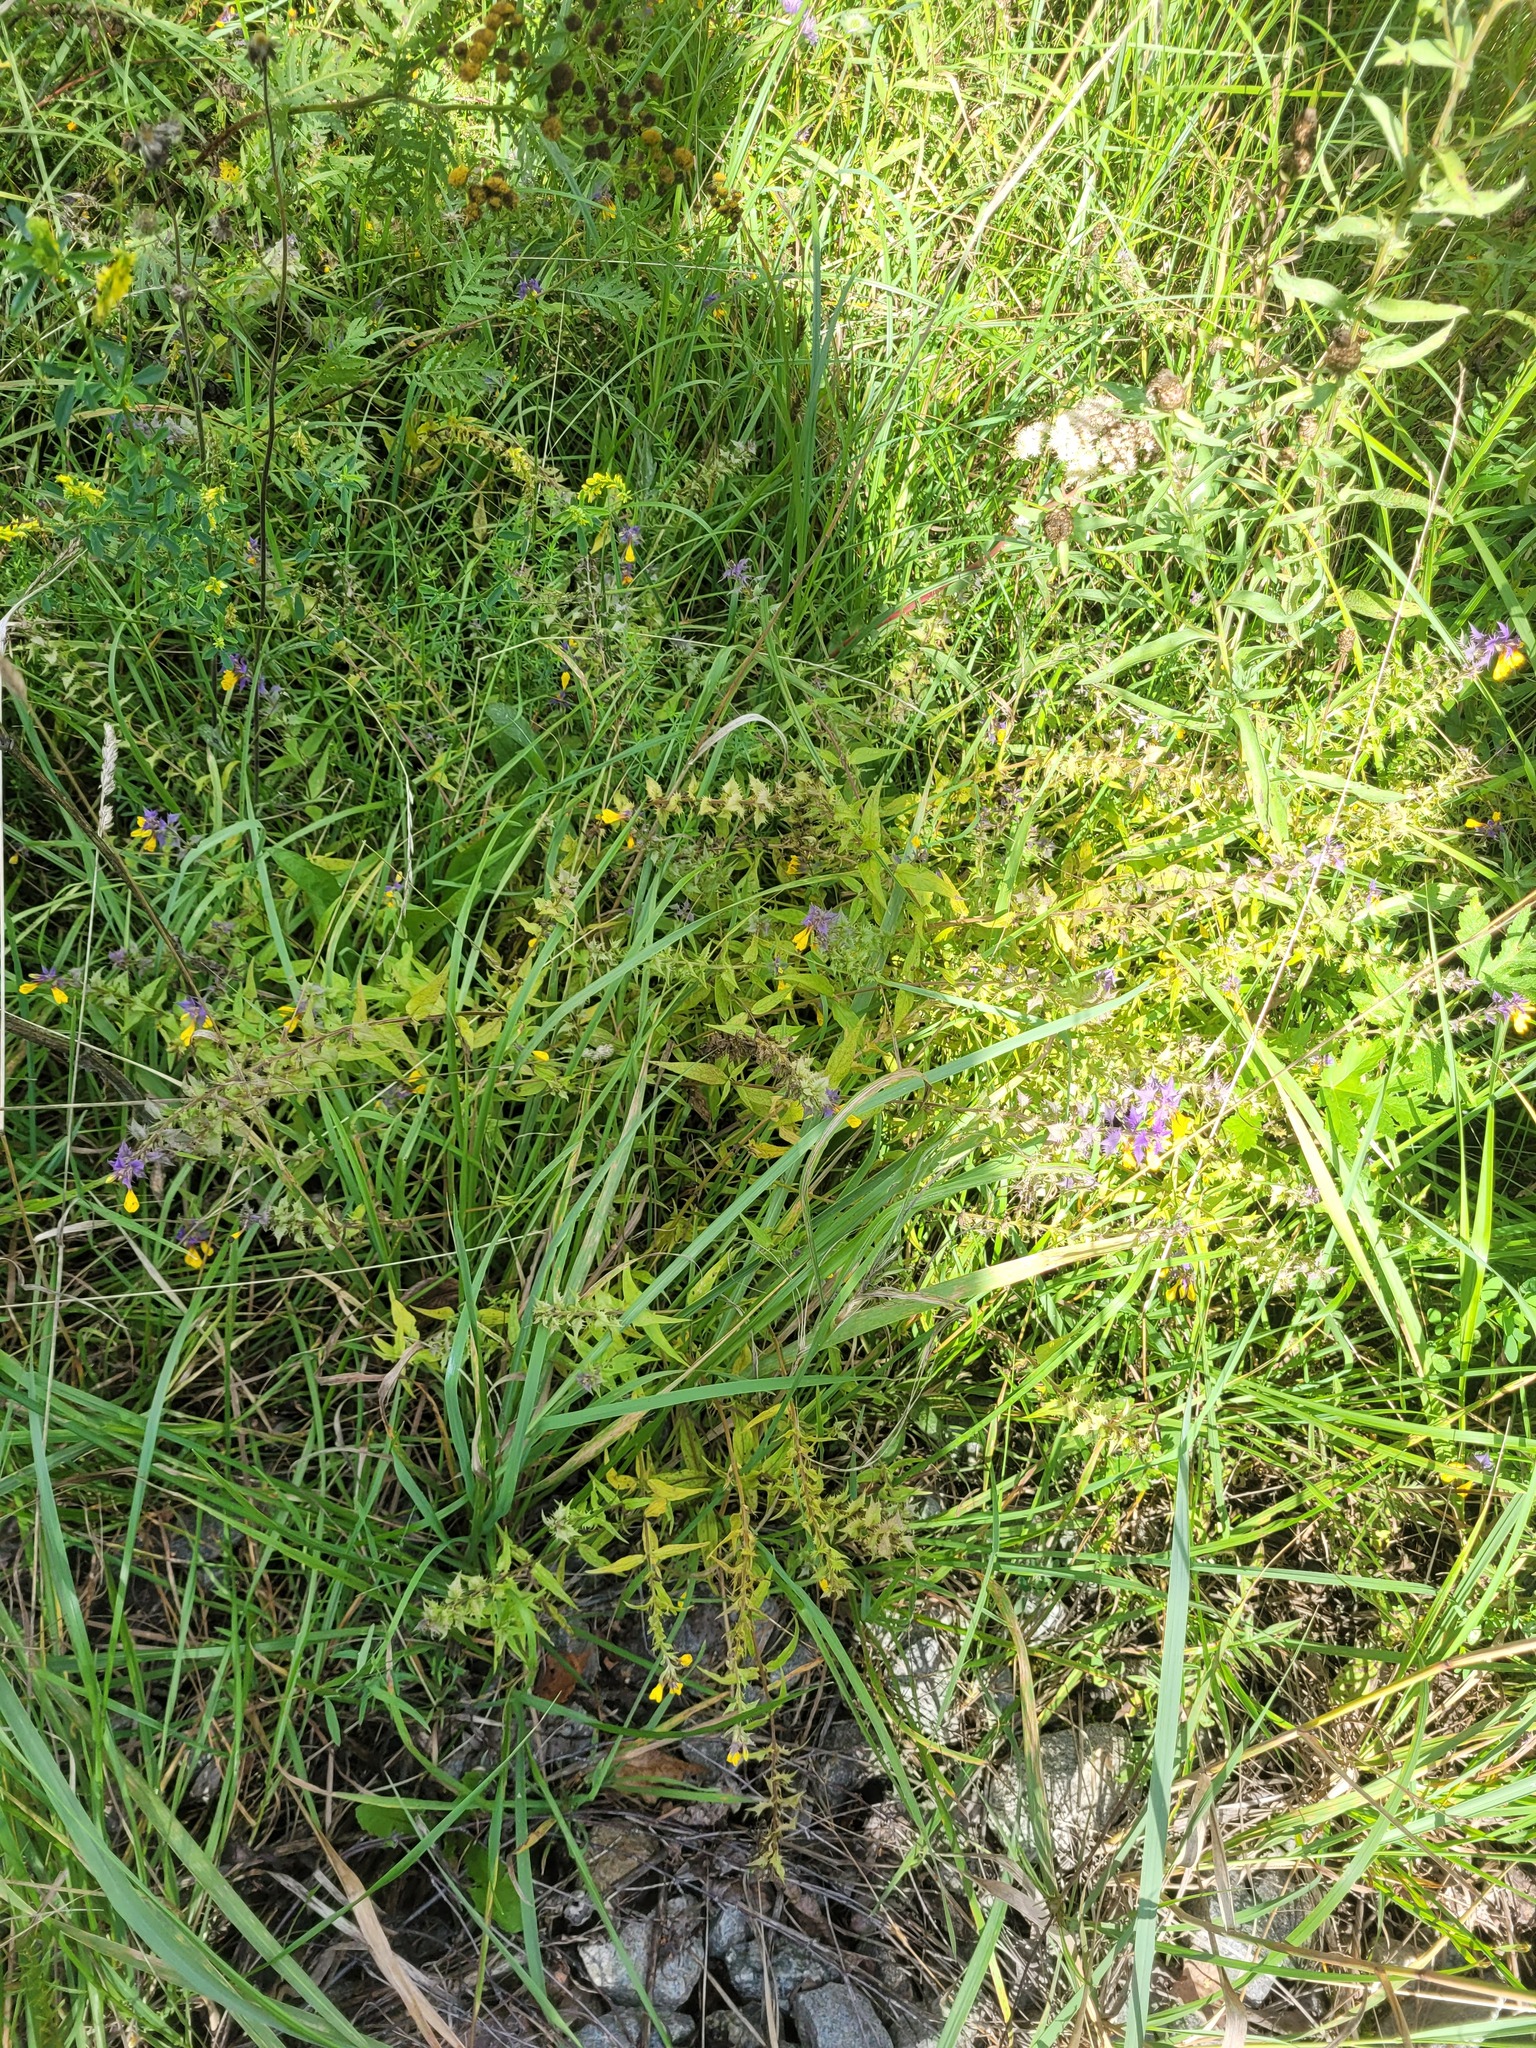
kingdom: Plantae
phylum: Tracheophyta
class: Magnoliopsida
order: Lamiales
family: Orobanchaceae
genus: Melampyrum
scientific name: Melampyrum nemorosum
